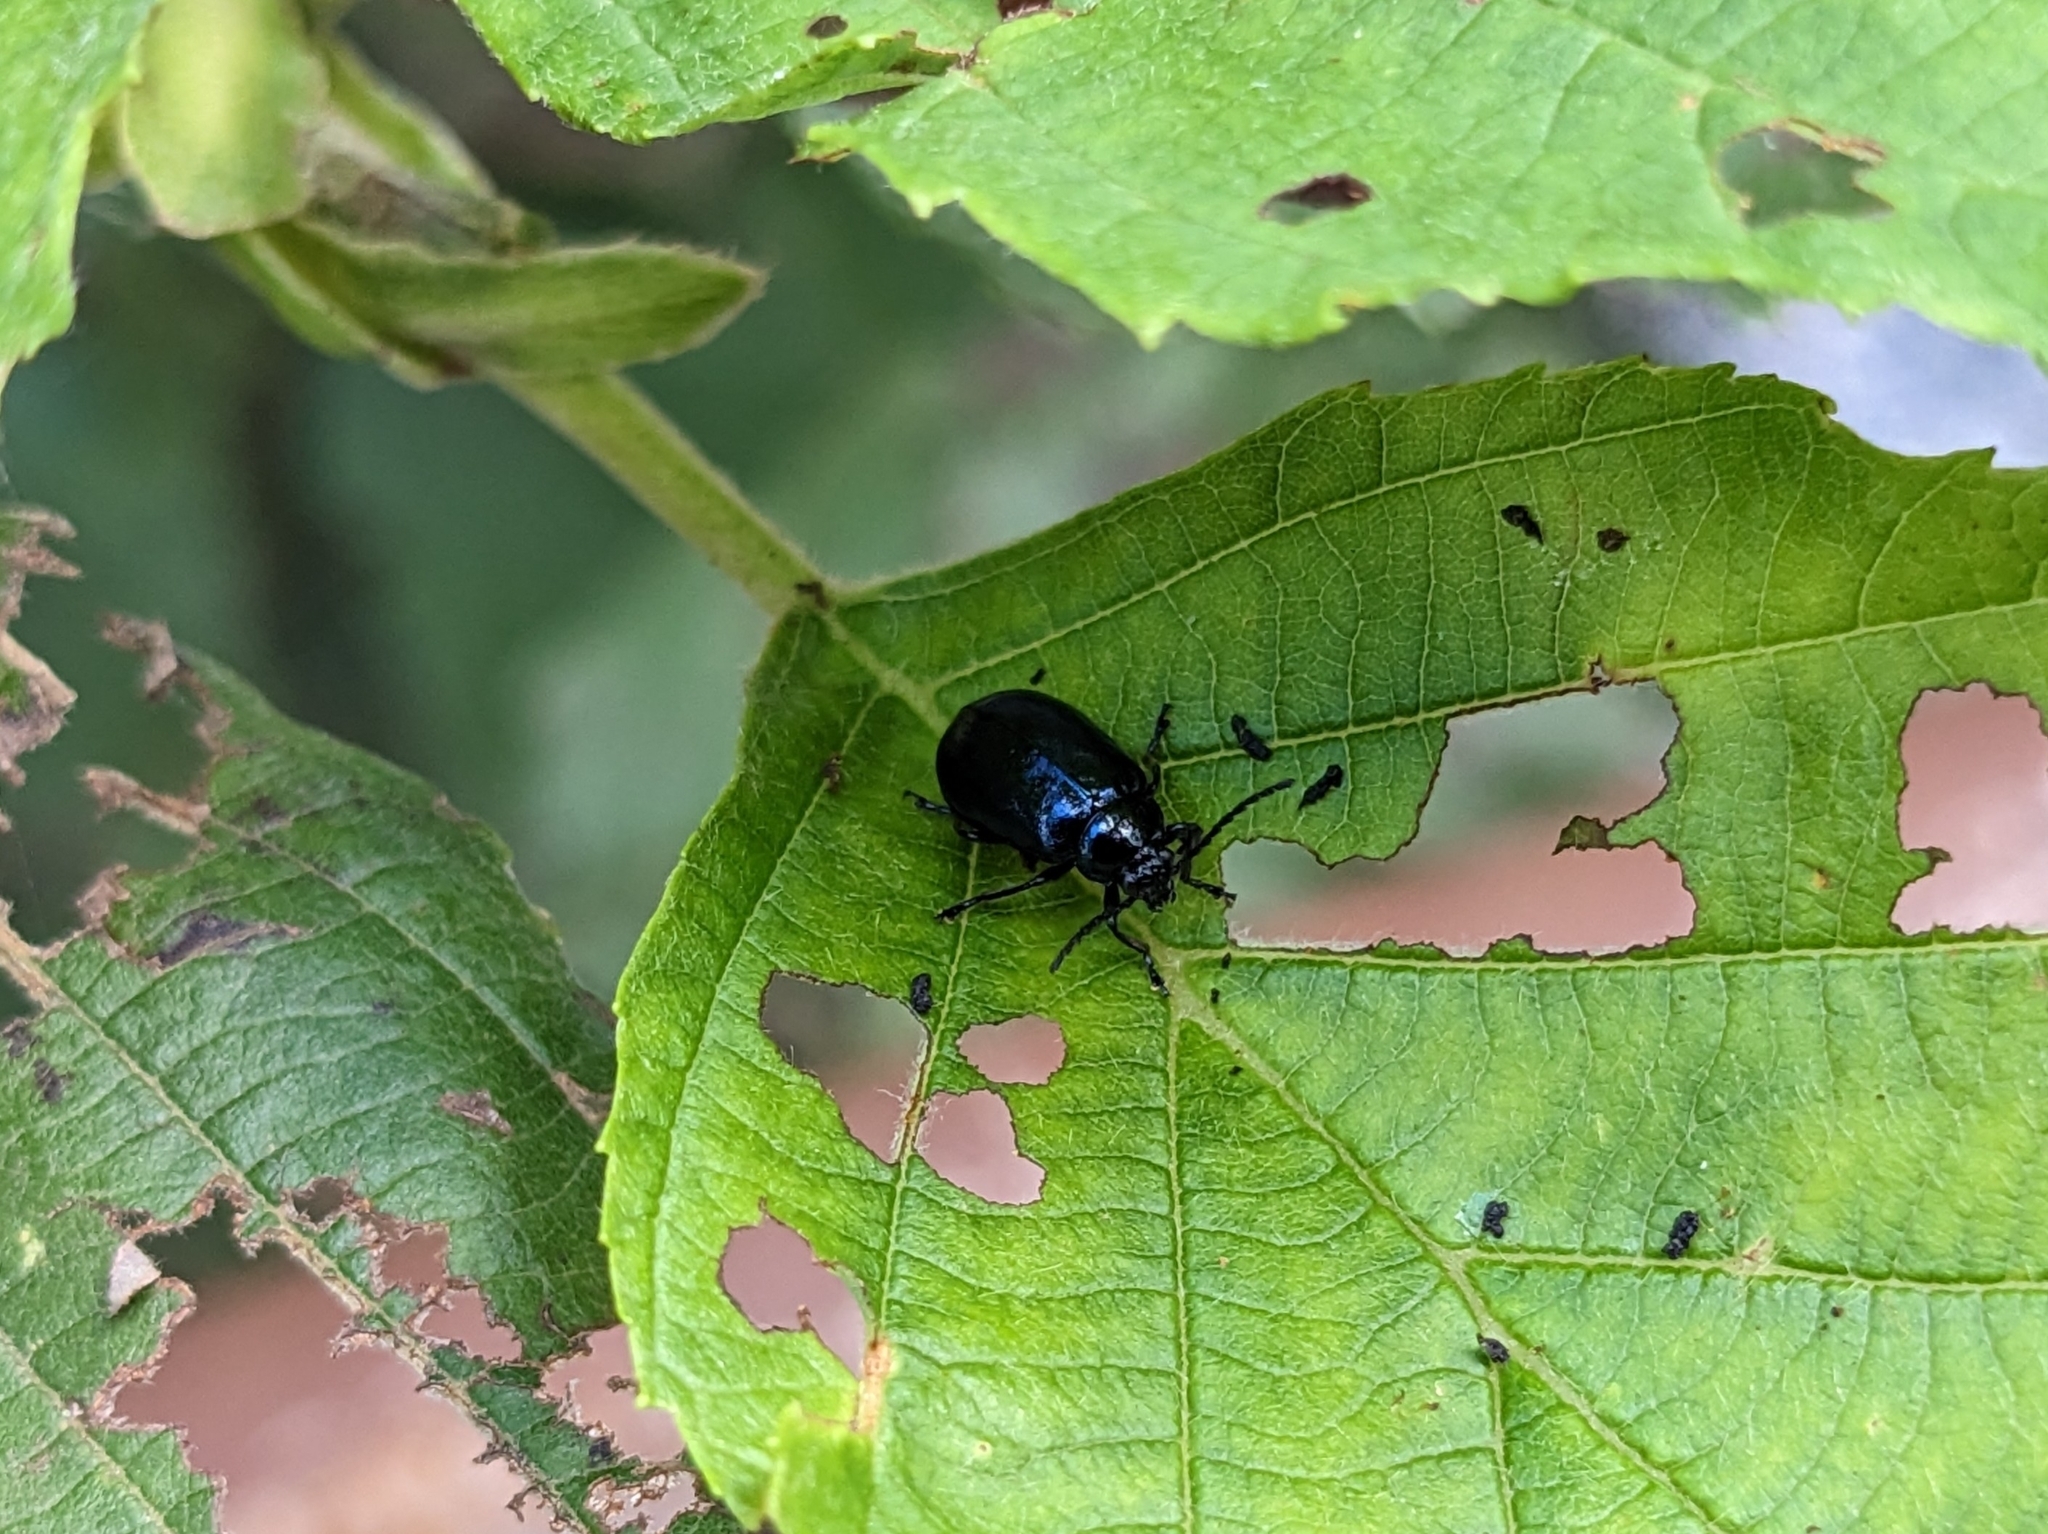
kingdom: Animalia
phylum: Arthropoda
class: Insecta
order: Coleoptera
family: Chrysomelidae
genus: Agelastica
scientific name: Agelastica alni
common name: Alder leaf beetle
